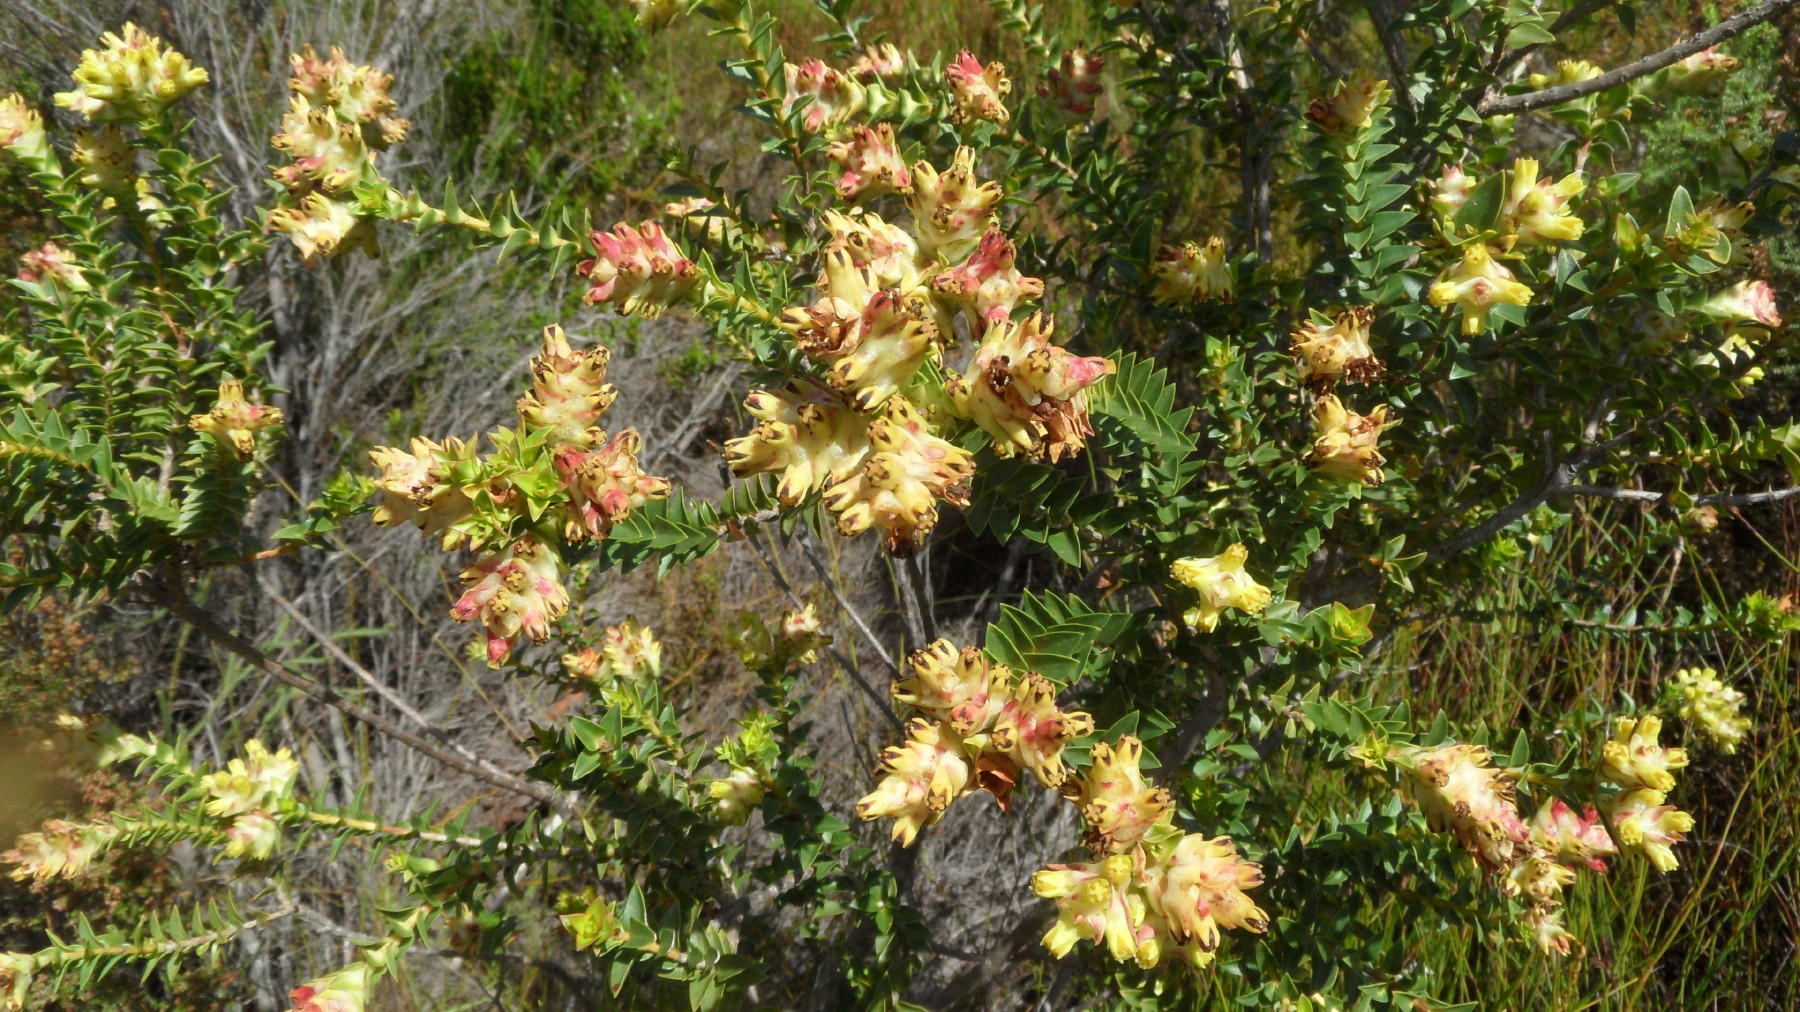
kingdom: Plantae
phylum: Tracheophyta
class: Magnoliopsida
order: Myrtales
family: Penaeaceae
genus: Penaea
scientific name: Penaea mucronata
